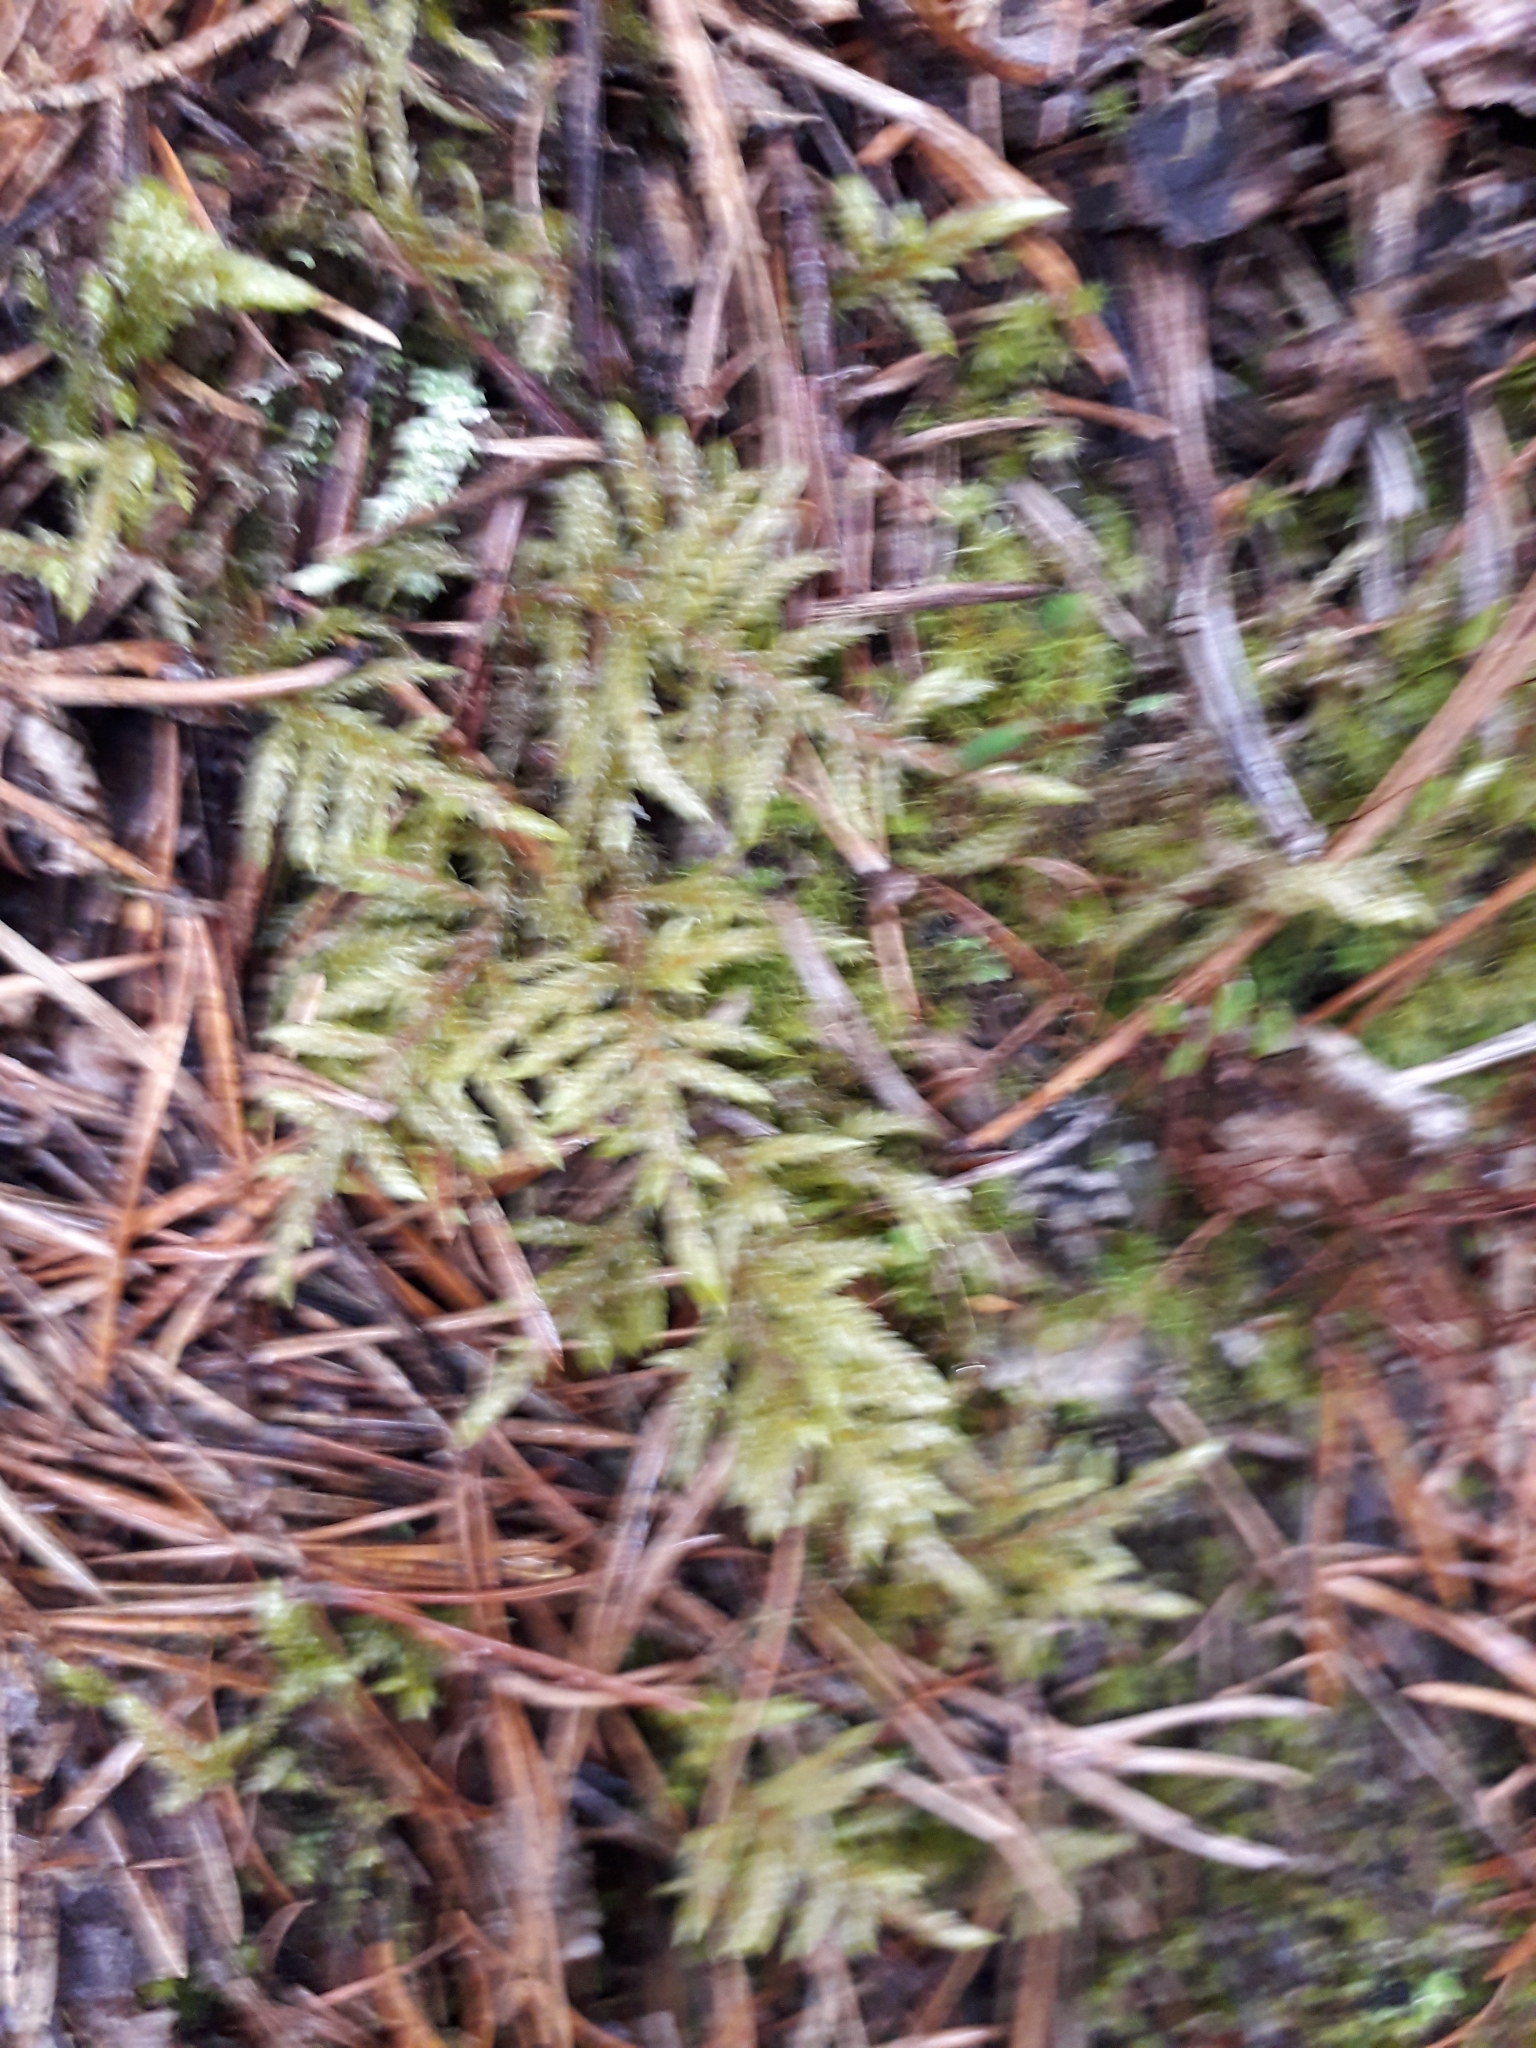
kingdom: Plantae
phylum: Bryophyta
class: Bryopsida
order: Hypnales
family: Hylocomiaceae
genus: Pleurozium
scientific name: Pleurozium schreberi
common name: Red-stemmed feather moss
